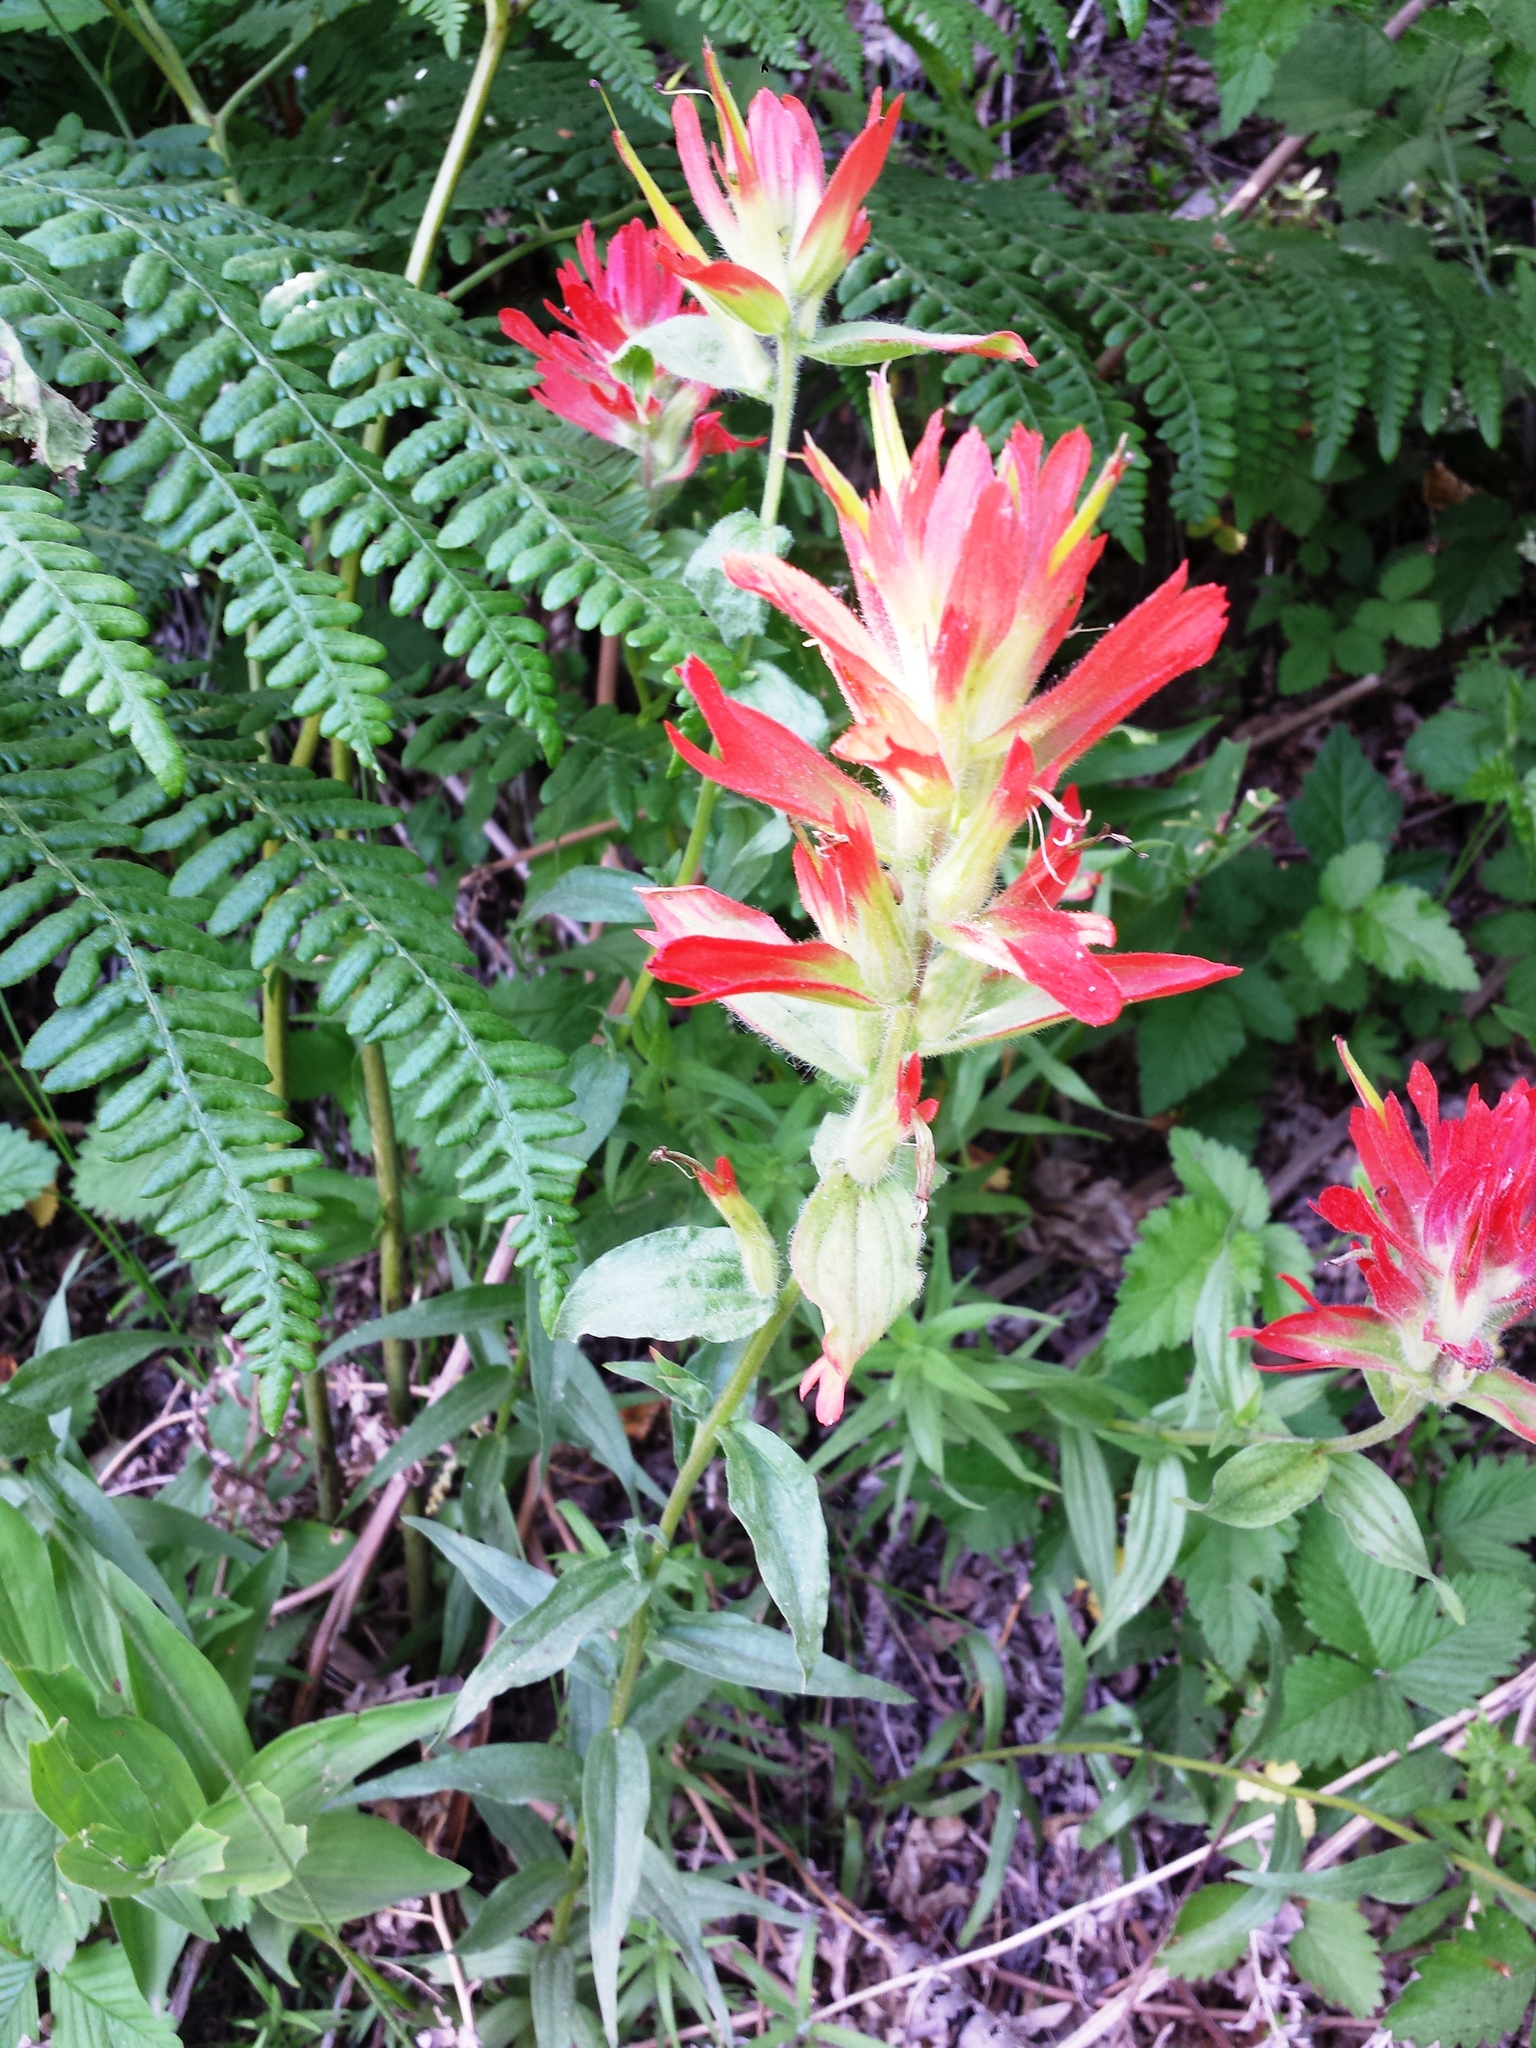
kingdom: Plantae
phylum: Tracheophyta
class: Magnoliopsida
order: Lamiales
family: Orobanchaceae
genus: Castilleja
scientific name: Castilleja miniata
